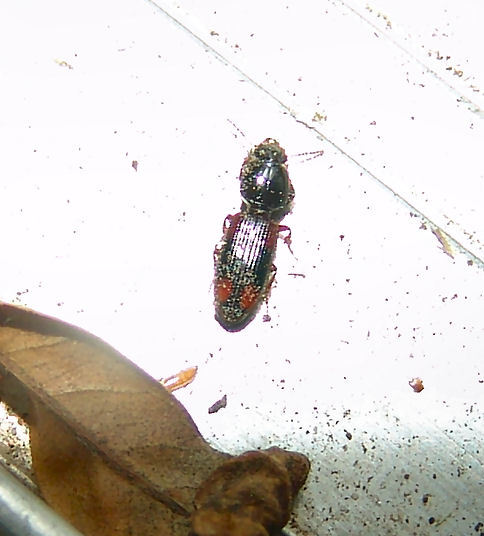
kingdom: Animalia
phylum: Arthropoda
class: Insecta
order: Coleoptera
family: Carabidae
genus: Clivina
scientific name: Clivina bipustulata
